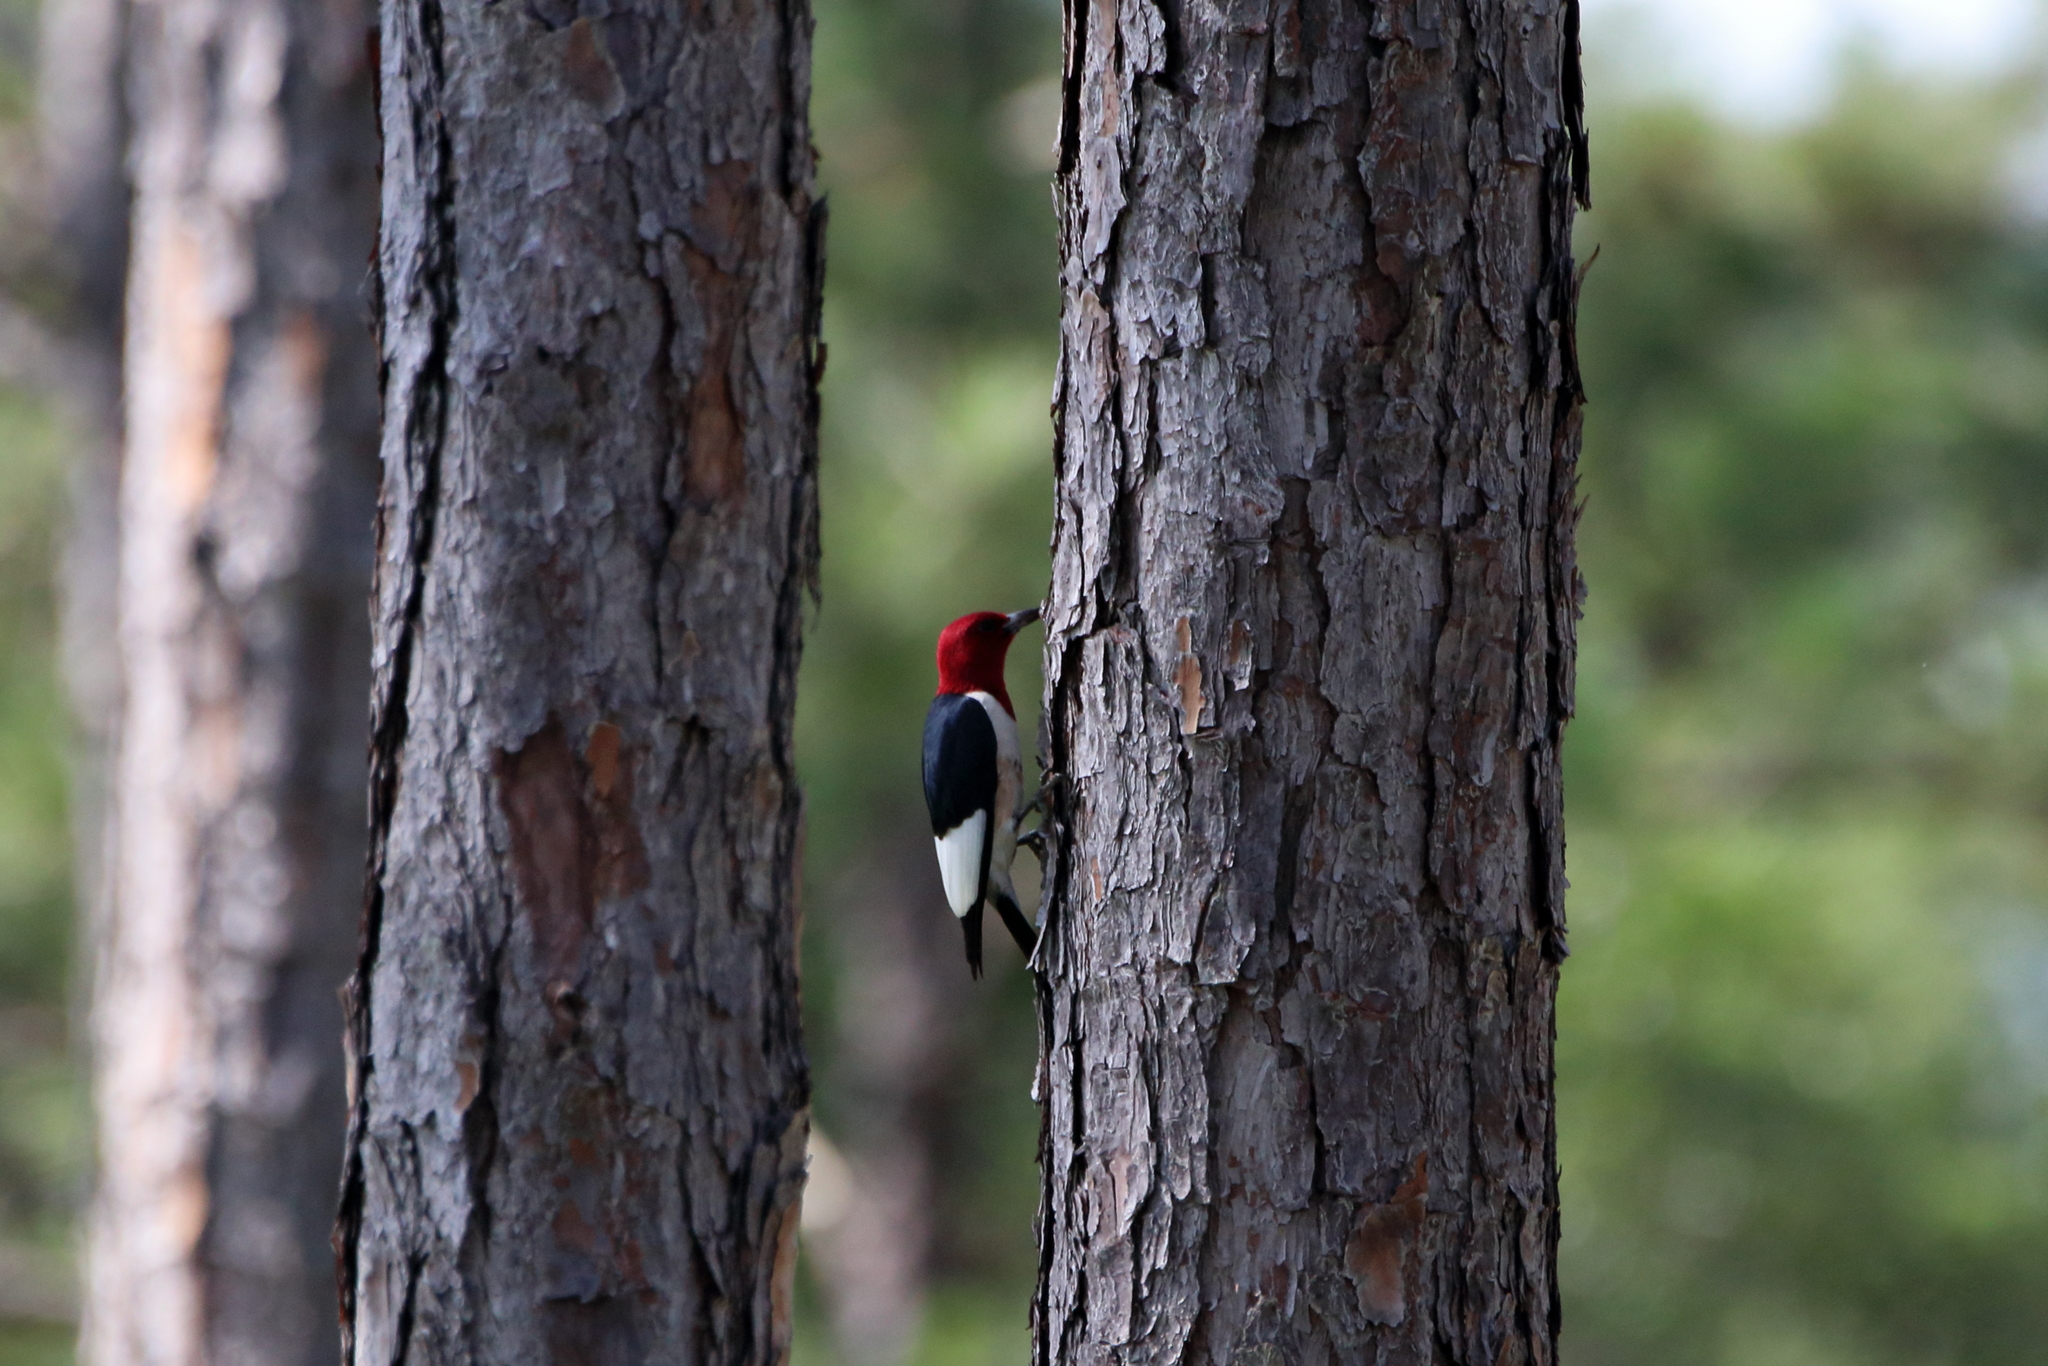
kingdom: Animalia
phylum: Chordata
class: Aves
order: Piciformes
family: Picidae
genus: Melanerpes
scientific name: Melanerpes erythrocephalus
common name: Red-headed woodpecker
